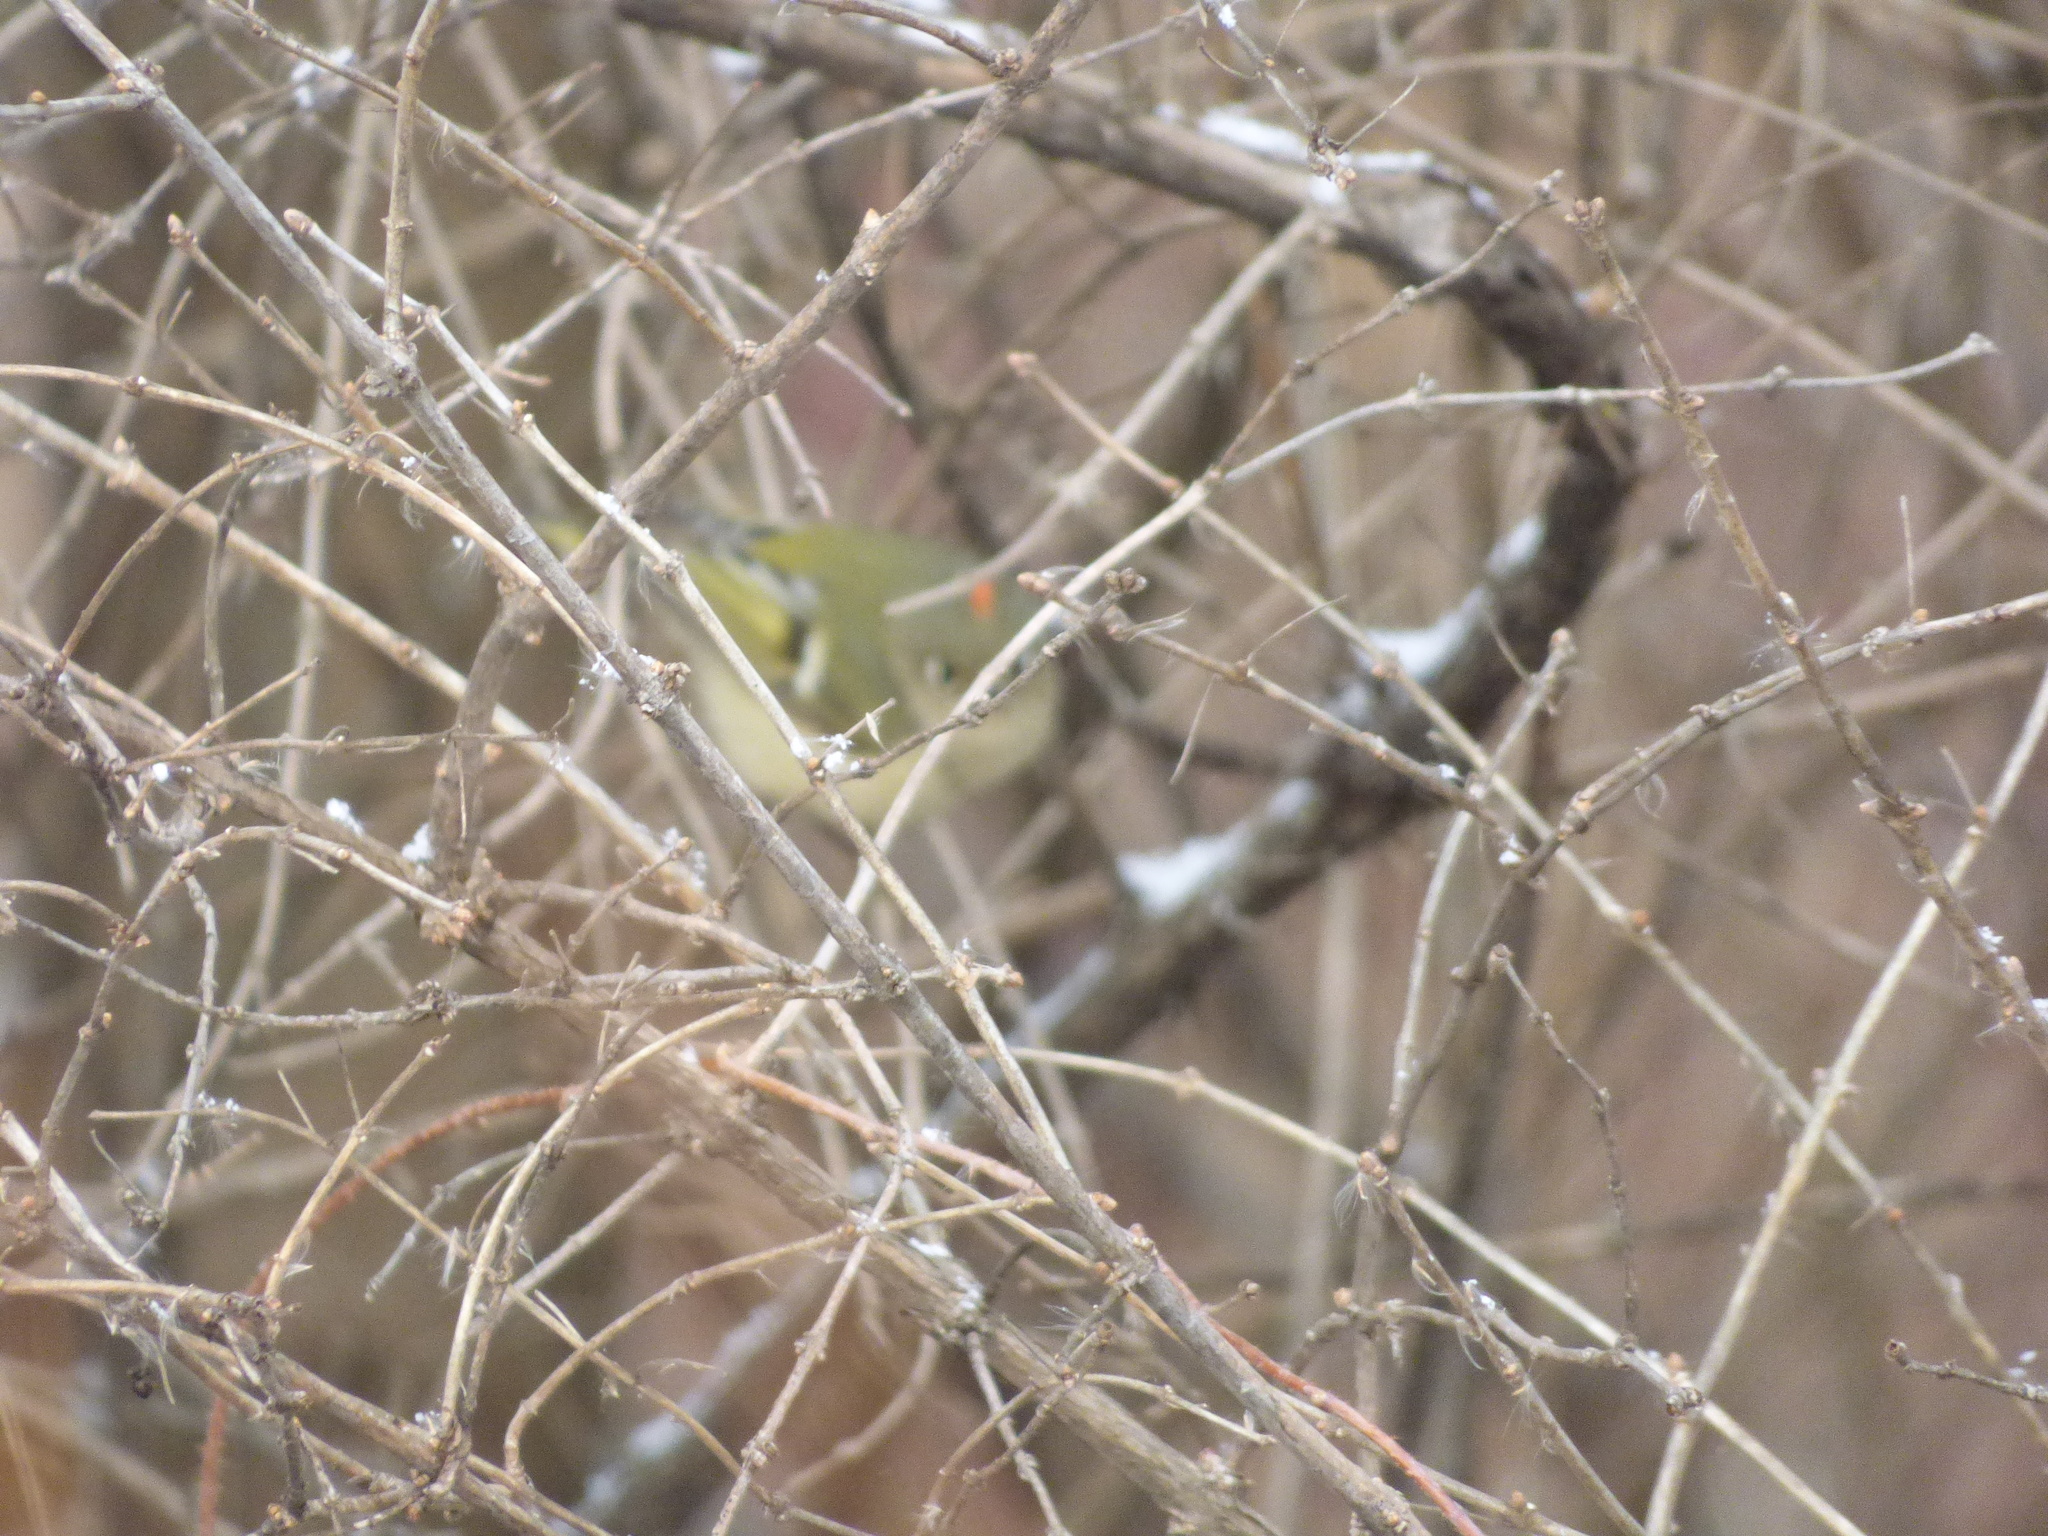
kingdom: Animalia
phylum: Chordata
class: Aves
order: Passeriformes
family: Regulidae
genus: Regulus
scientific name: Regulus calendula
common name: Ruby-crowned kinglet
